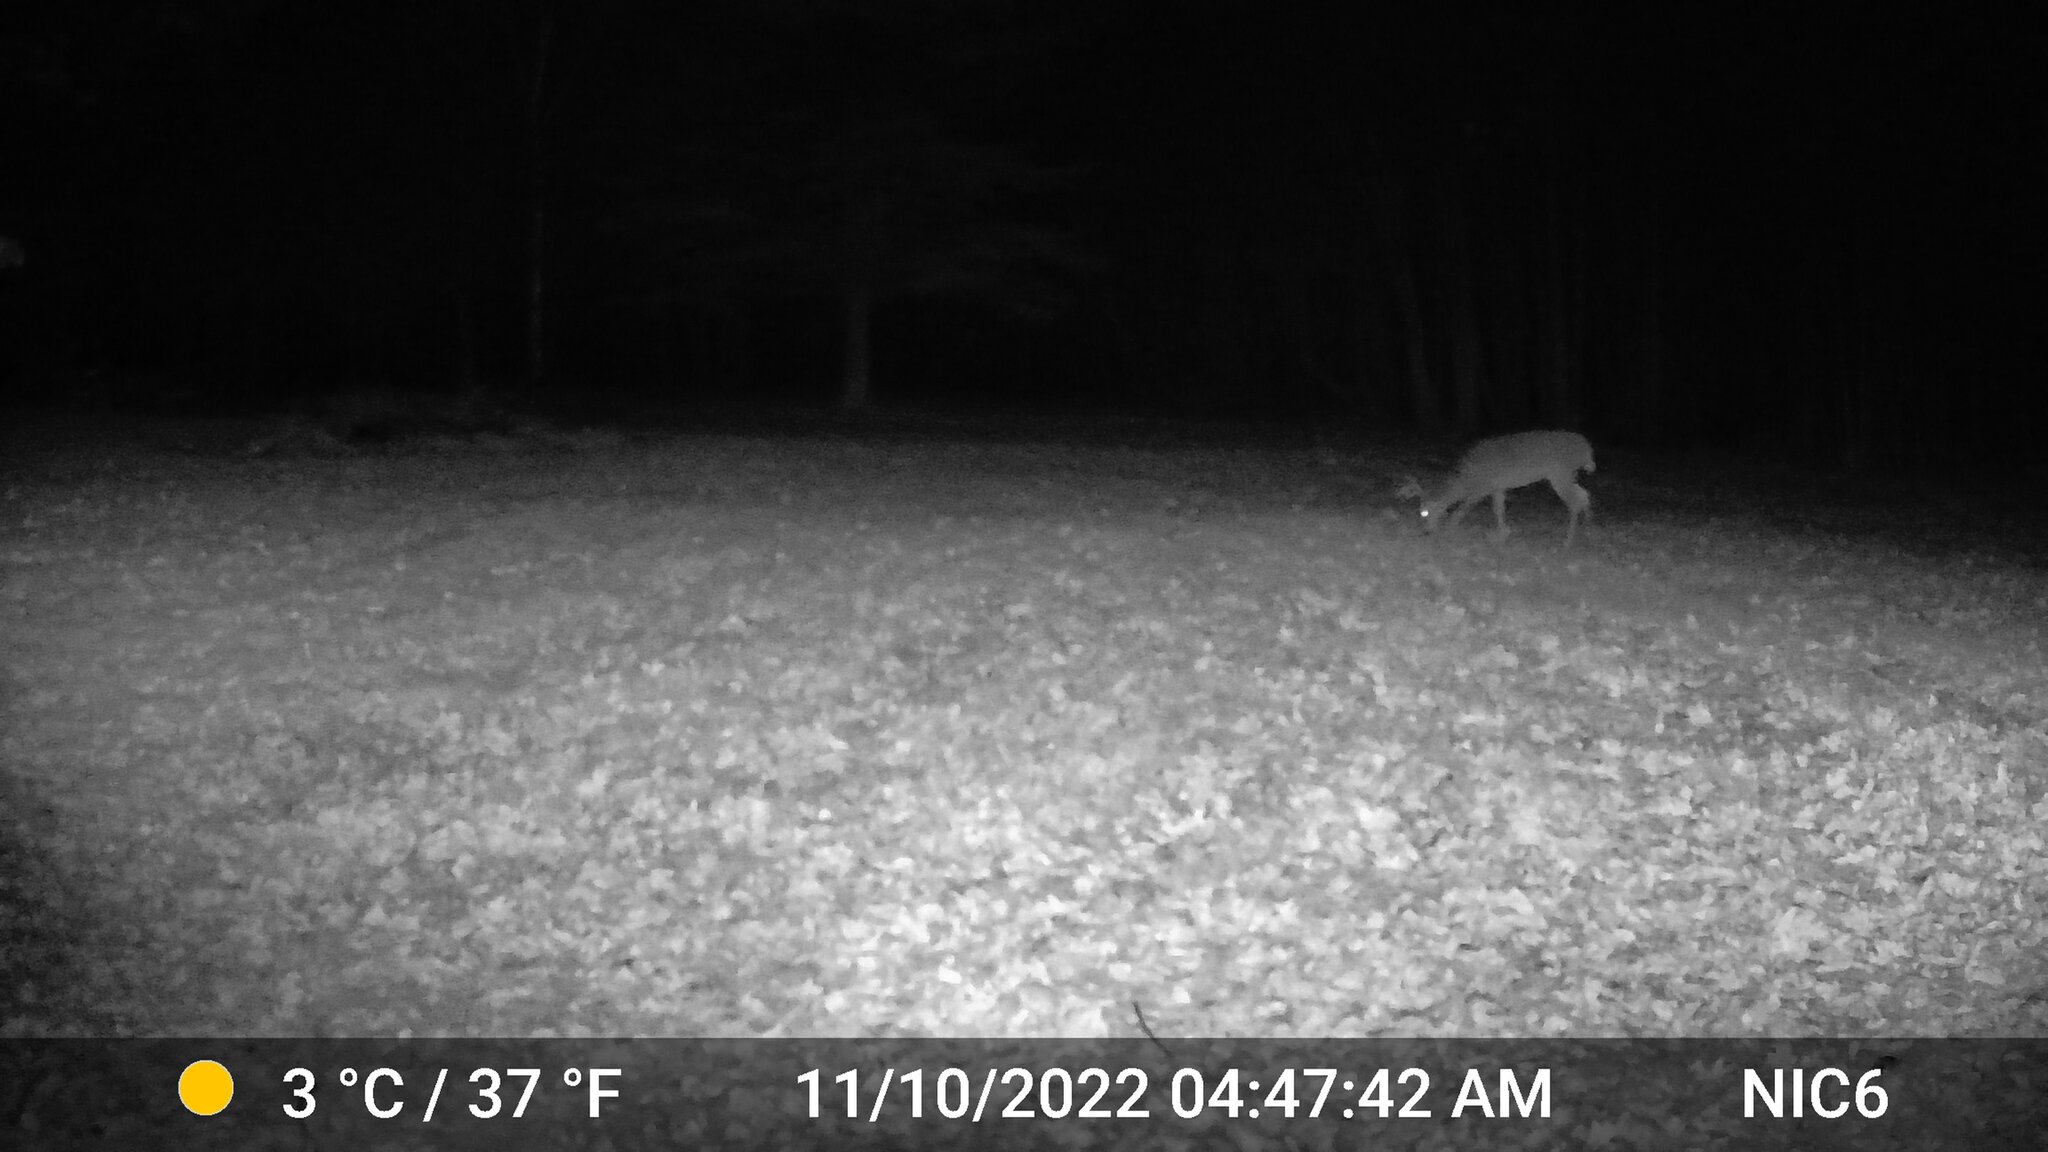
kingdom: Animalia
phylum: Chordata
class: Mammalia
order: Artiodactyla
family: Cervidae
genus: Odocoileus
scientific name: Odocoileus virginianus
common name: White-tailed deer
